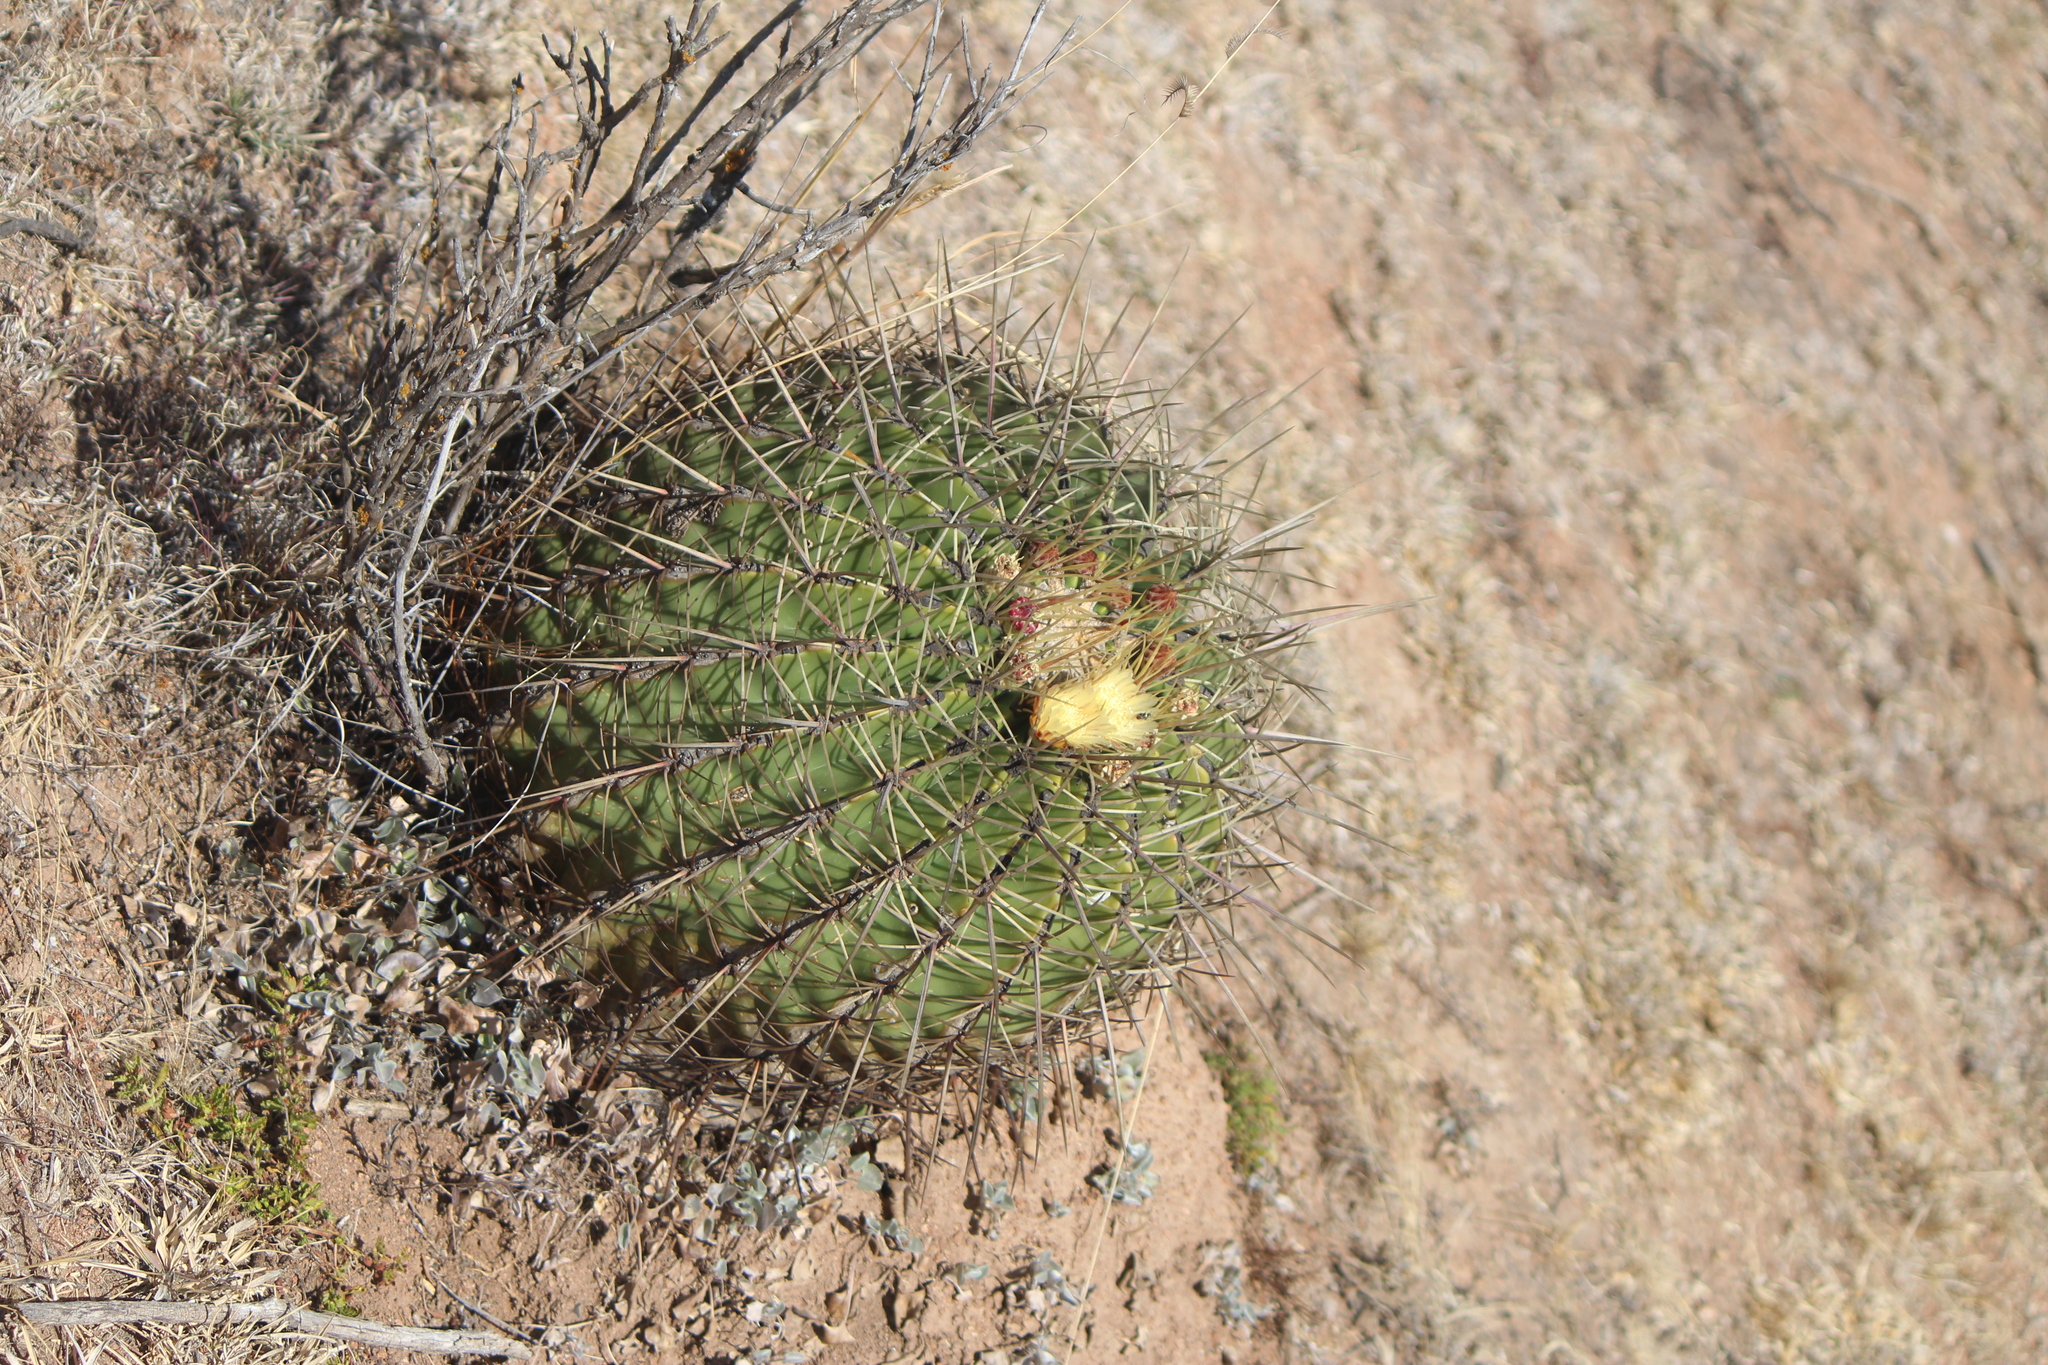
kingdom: Plantae
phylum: Tracheophyta
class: Magnoliopsida
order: Caryophyllales
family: Cactaceae
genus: Bisnaga
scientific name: Bisnaga histrix
